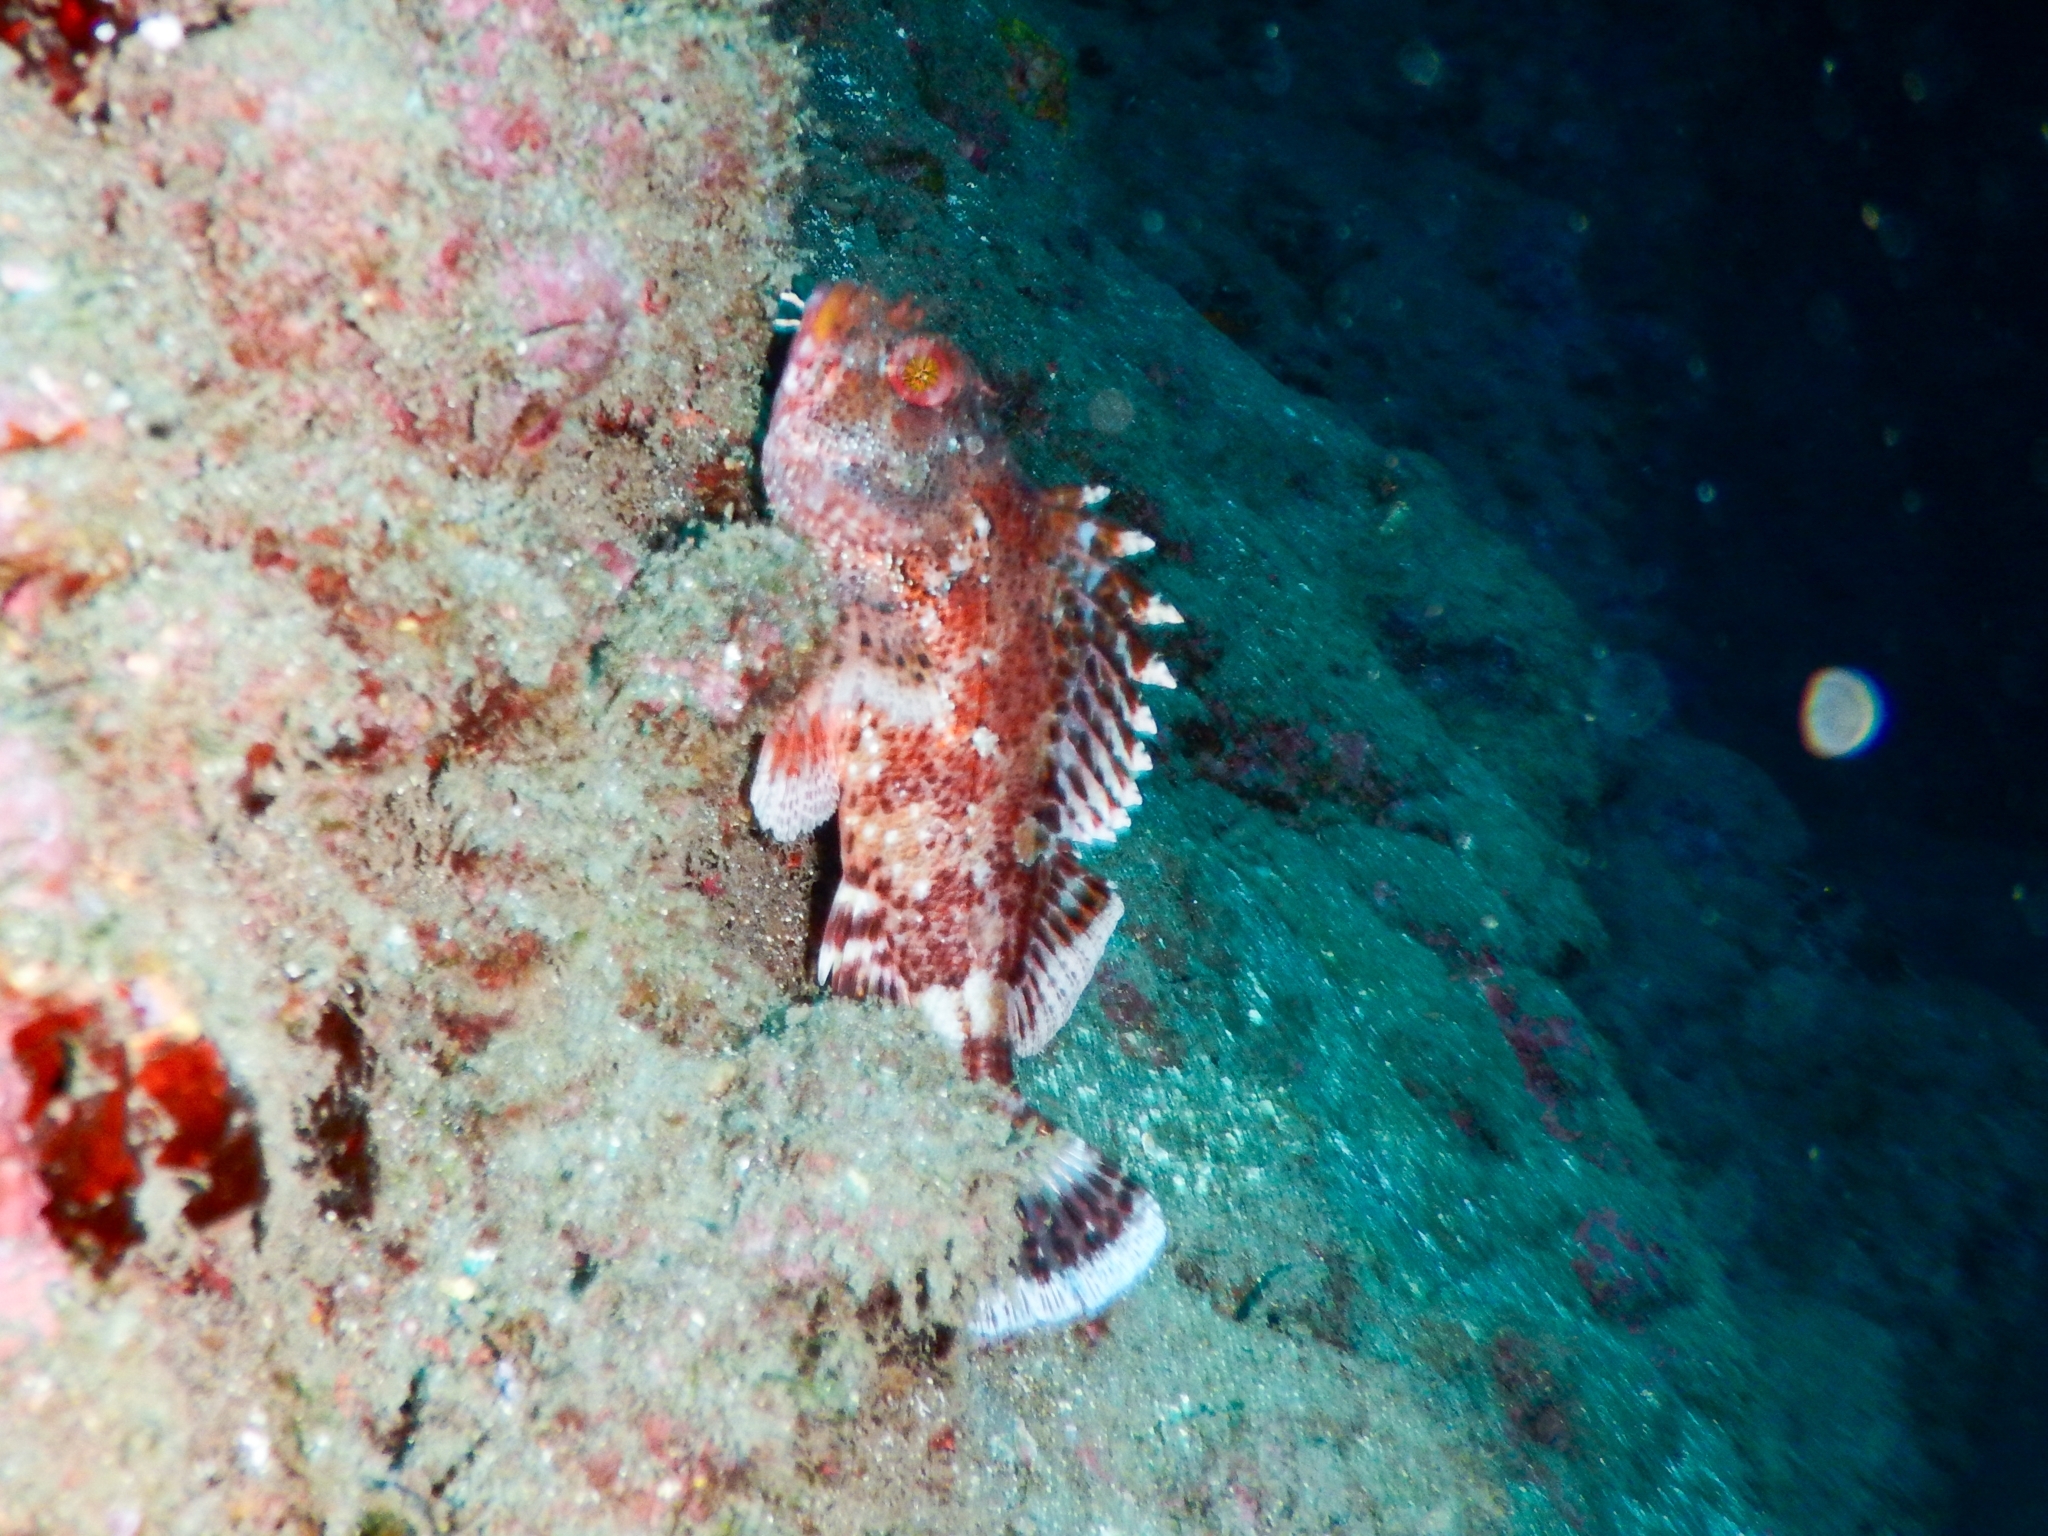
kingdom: Animalia
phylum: Chordata
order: Scorpaeniformes
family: Scorpaenidae
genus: Scorpaena
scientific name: Scorpaena maderensis
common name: Madeira rockfish
